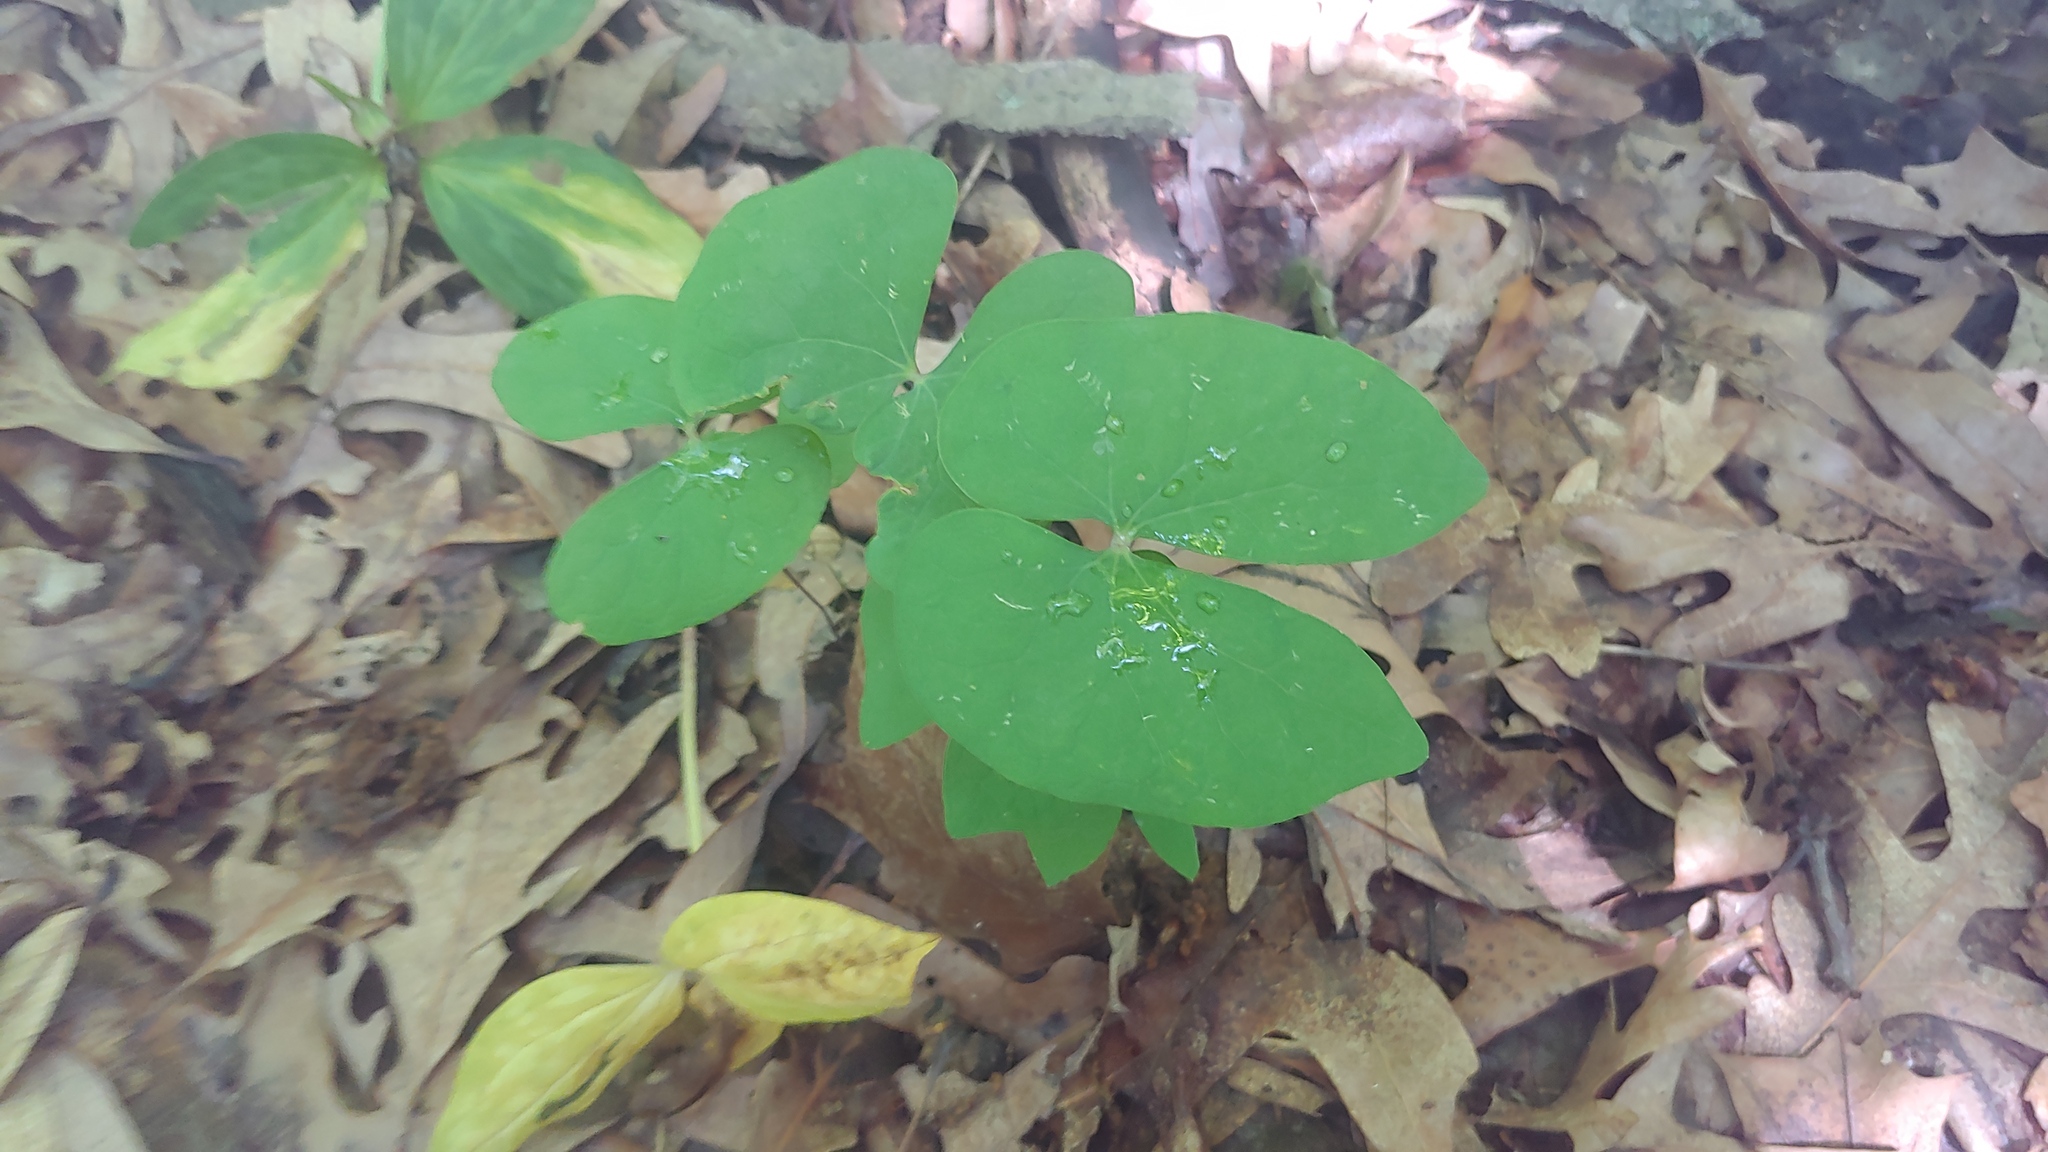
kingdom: Plantae
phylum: Tracheophyta
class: Magnoliopsida
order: Ranunculales
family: Berberidaceae
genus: Jeffersonia
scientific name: Jeffersonia diphylla
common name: Rheumatism-root
